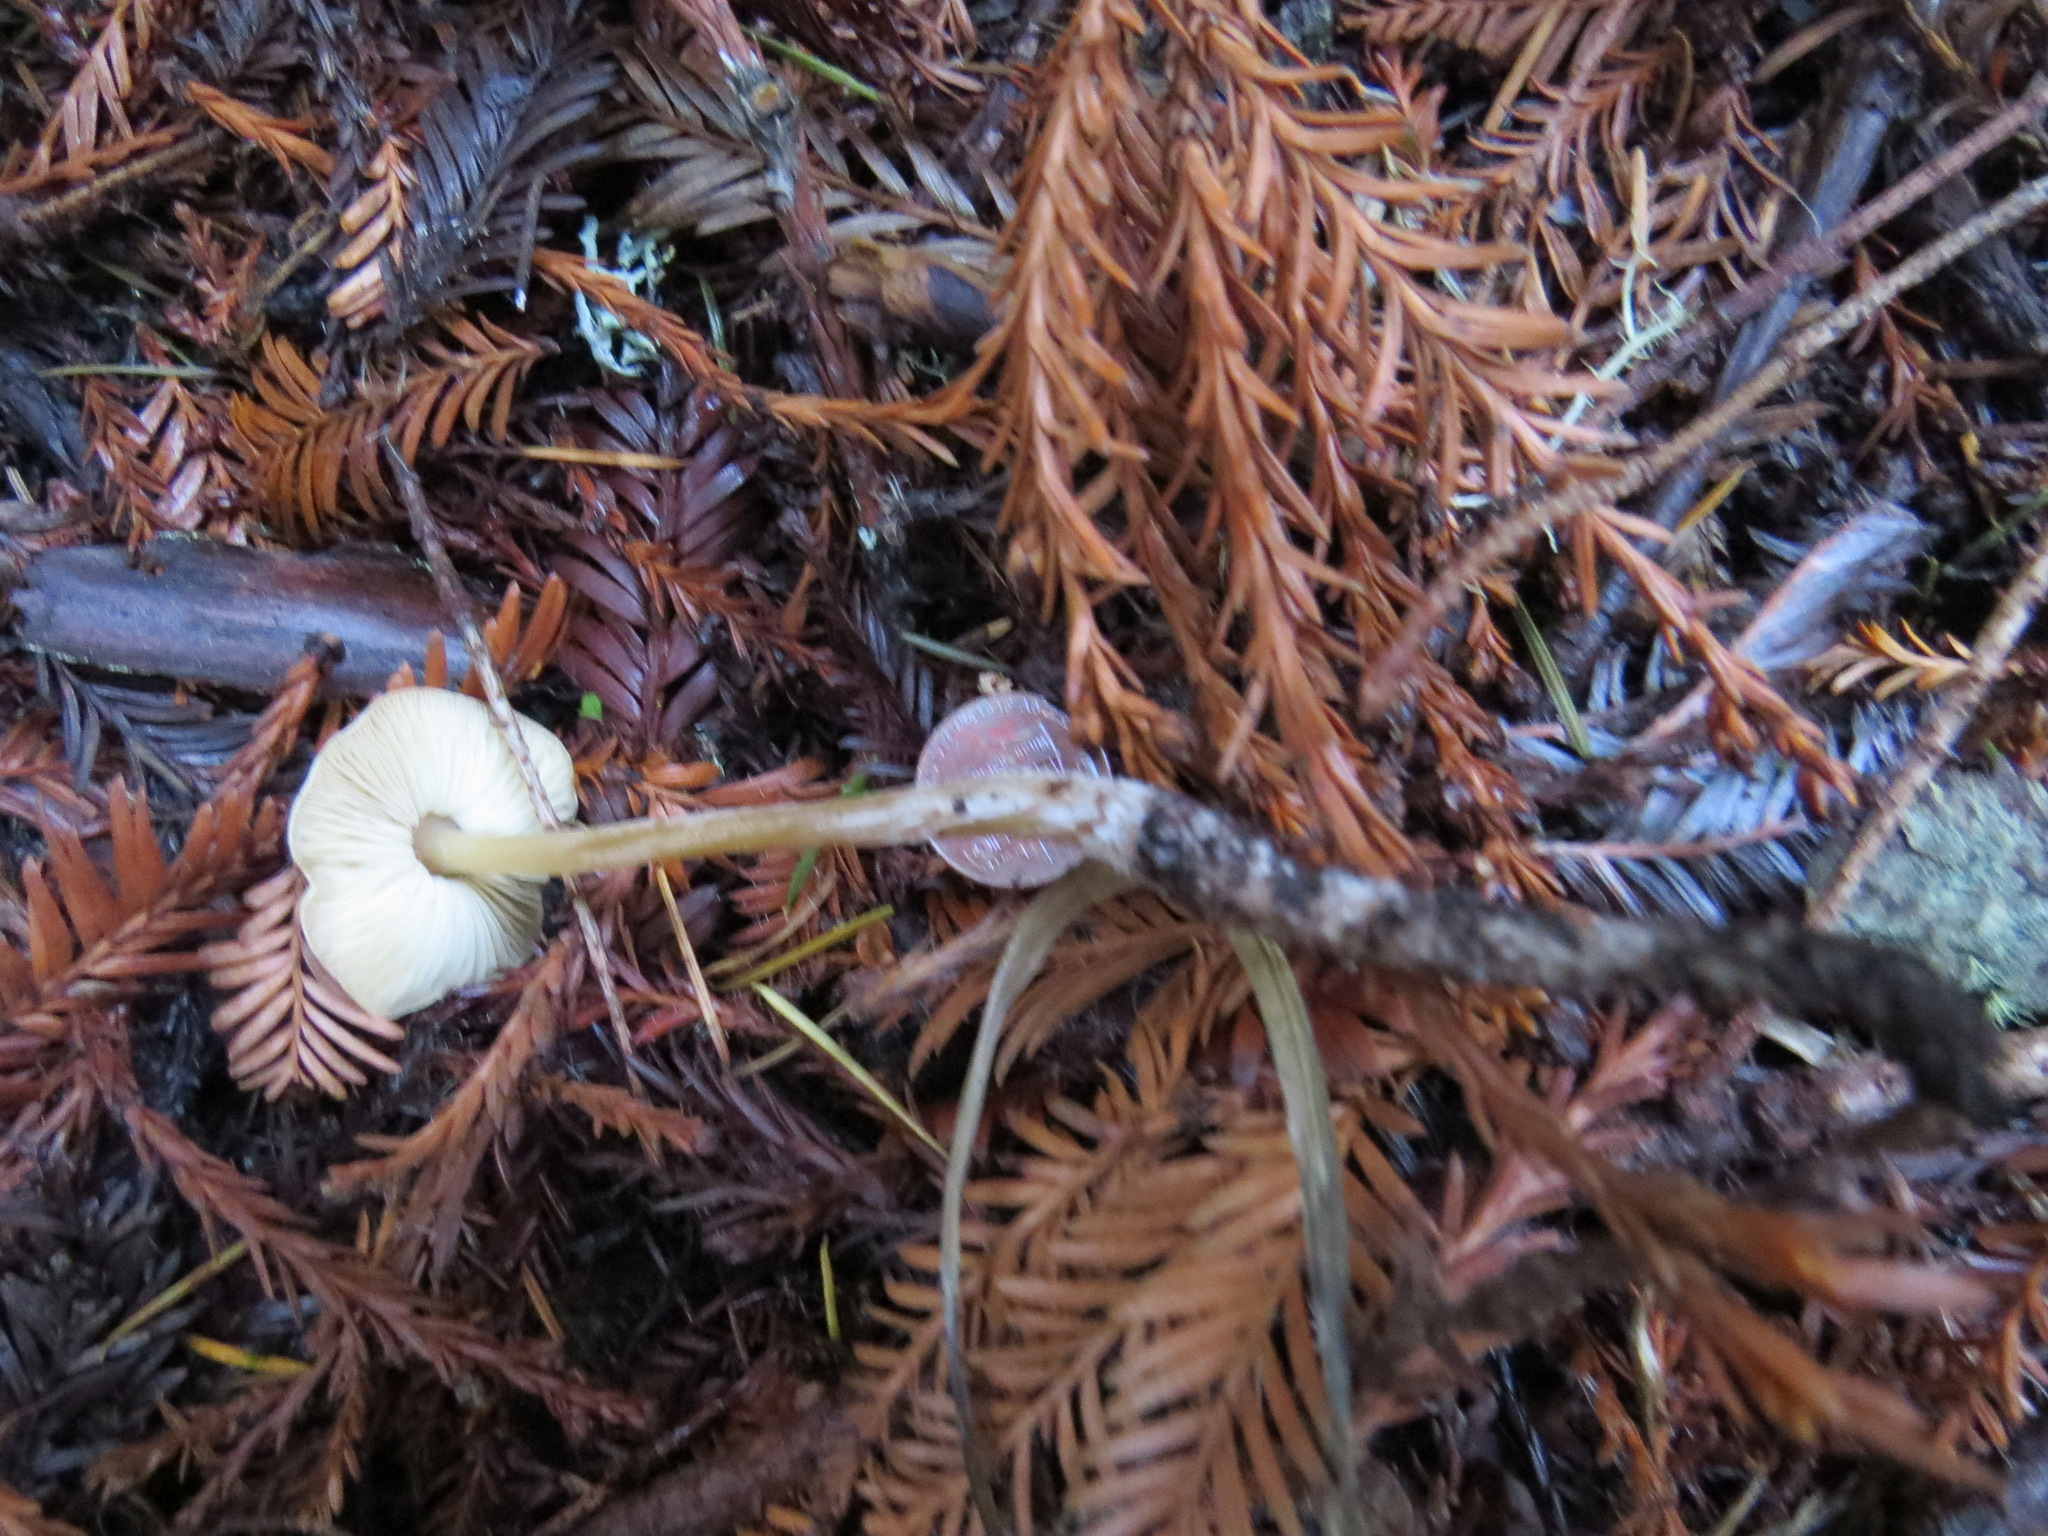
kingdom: Fungi
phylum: Basidiomycota
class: Agaricomycetes
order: Agaricales
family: Tricholomataceae
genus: Caulorhiza
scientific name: Caulorhiza umbonata
